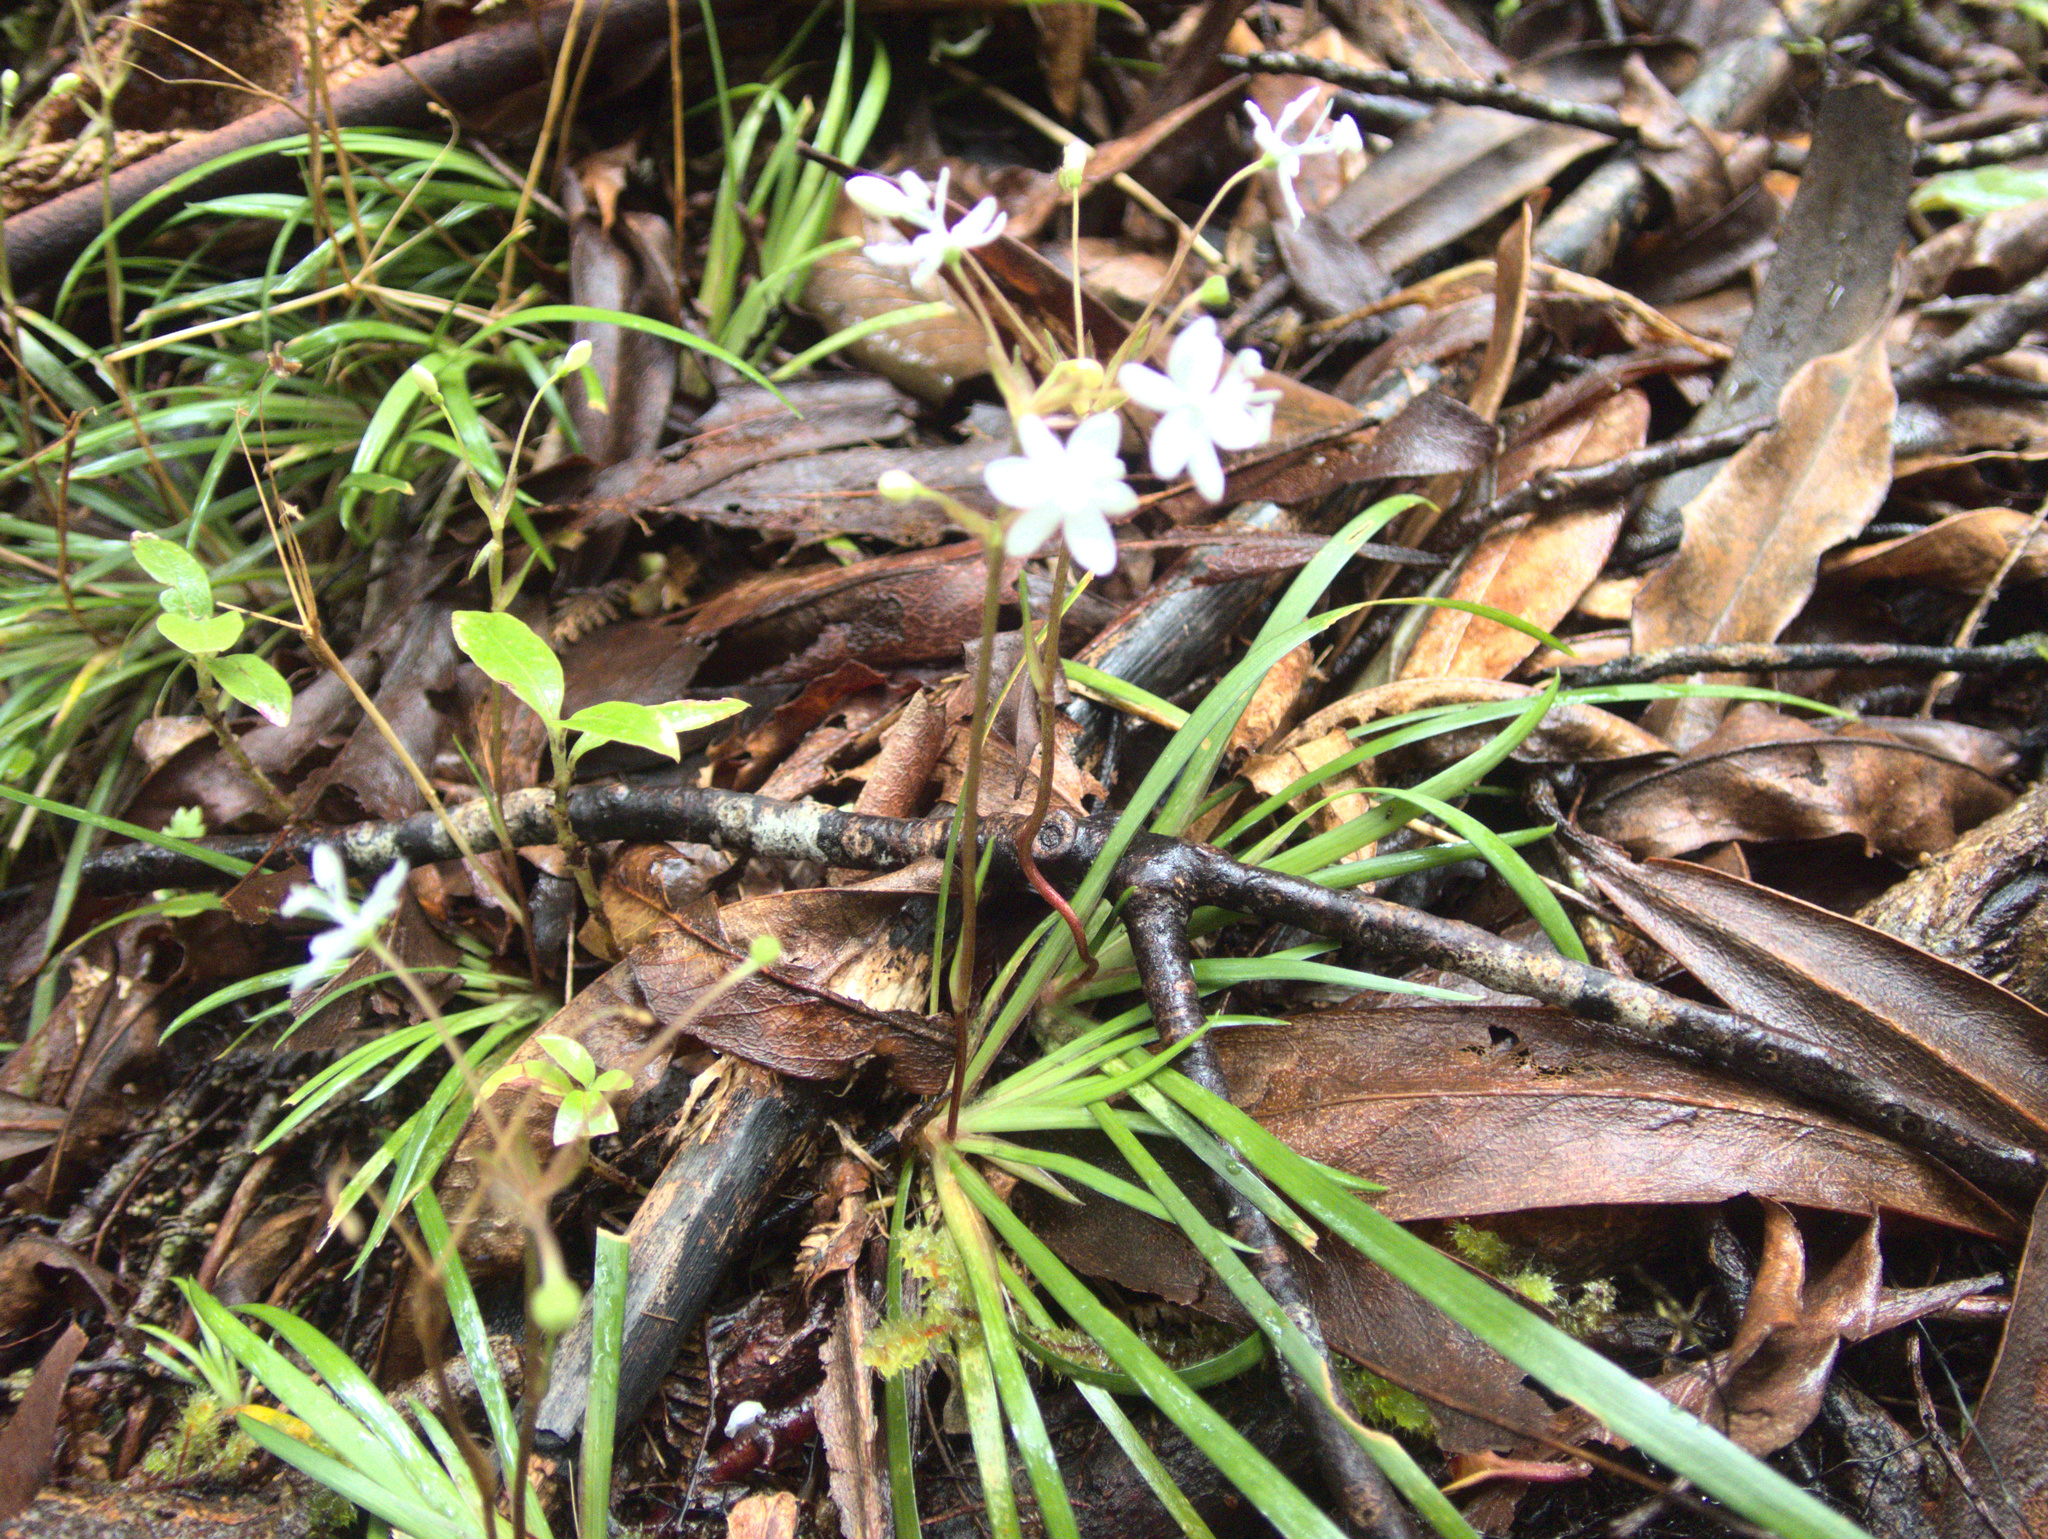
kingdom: Plantae
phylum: Tracheophyta
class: Liliopsida
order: Asparagales
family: Iridaceae
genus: Libertia
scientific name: Libertia micrantha
